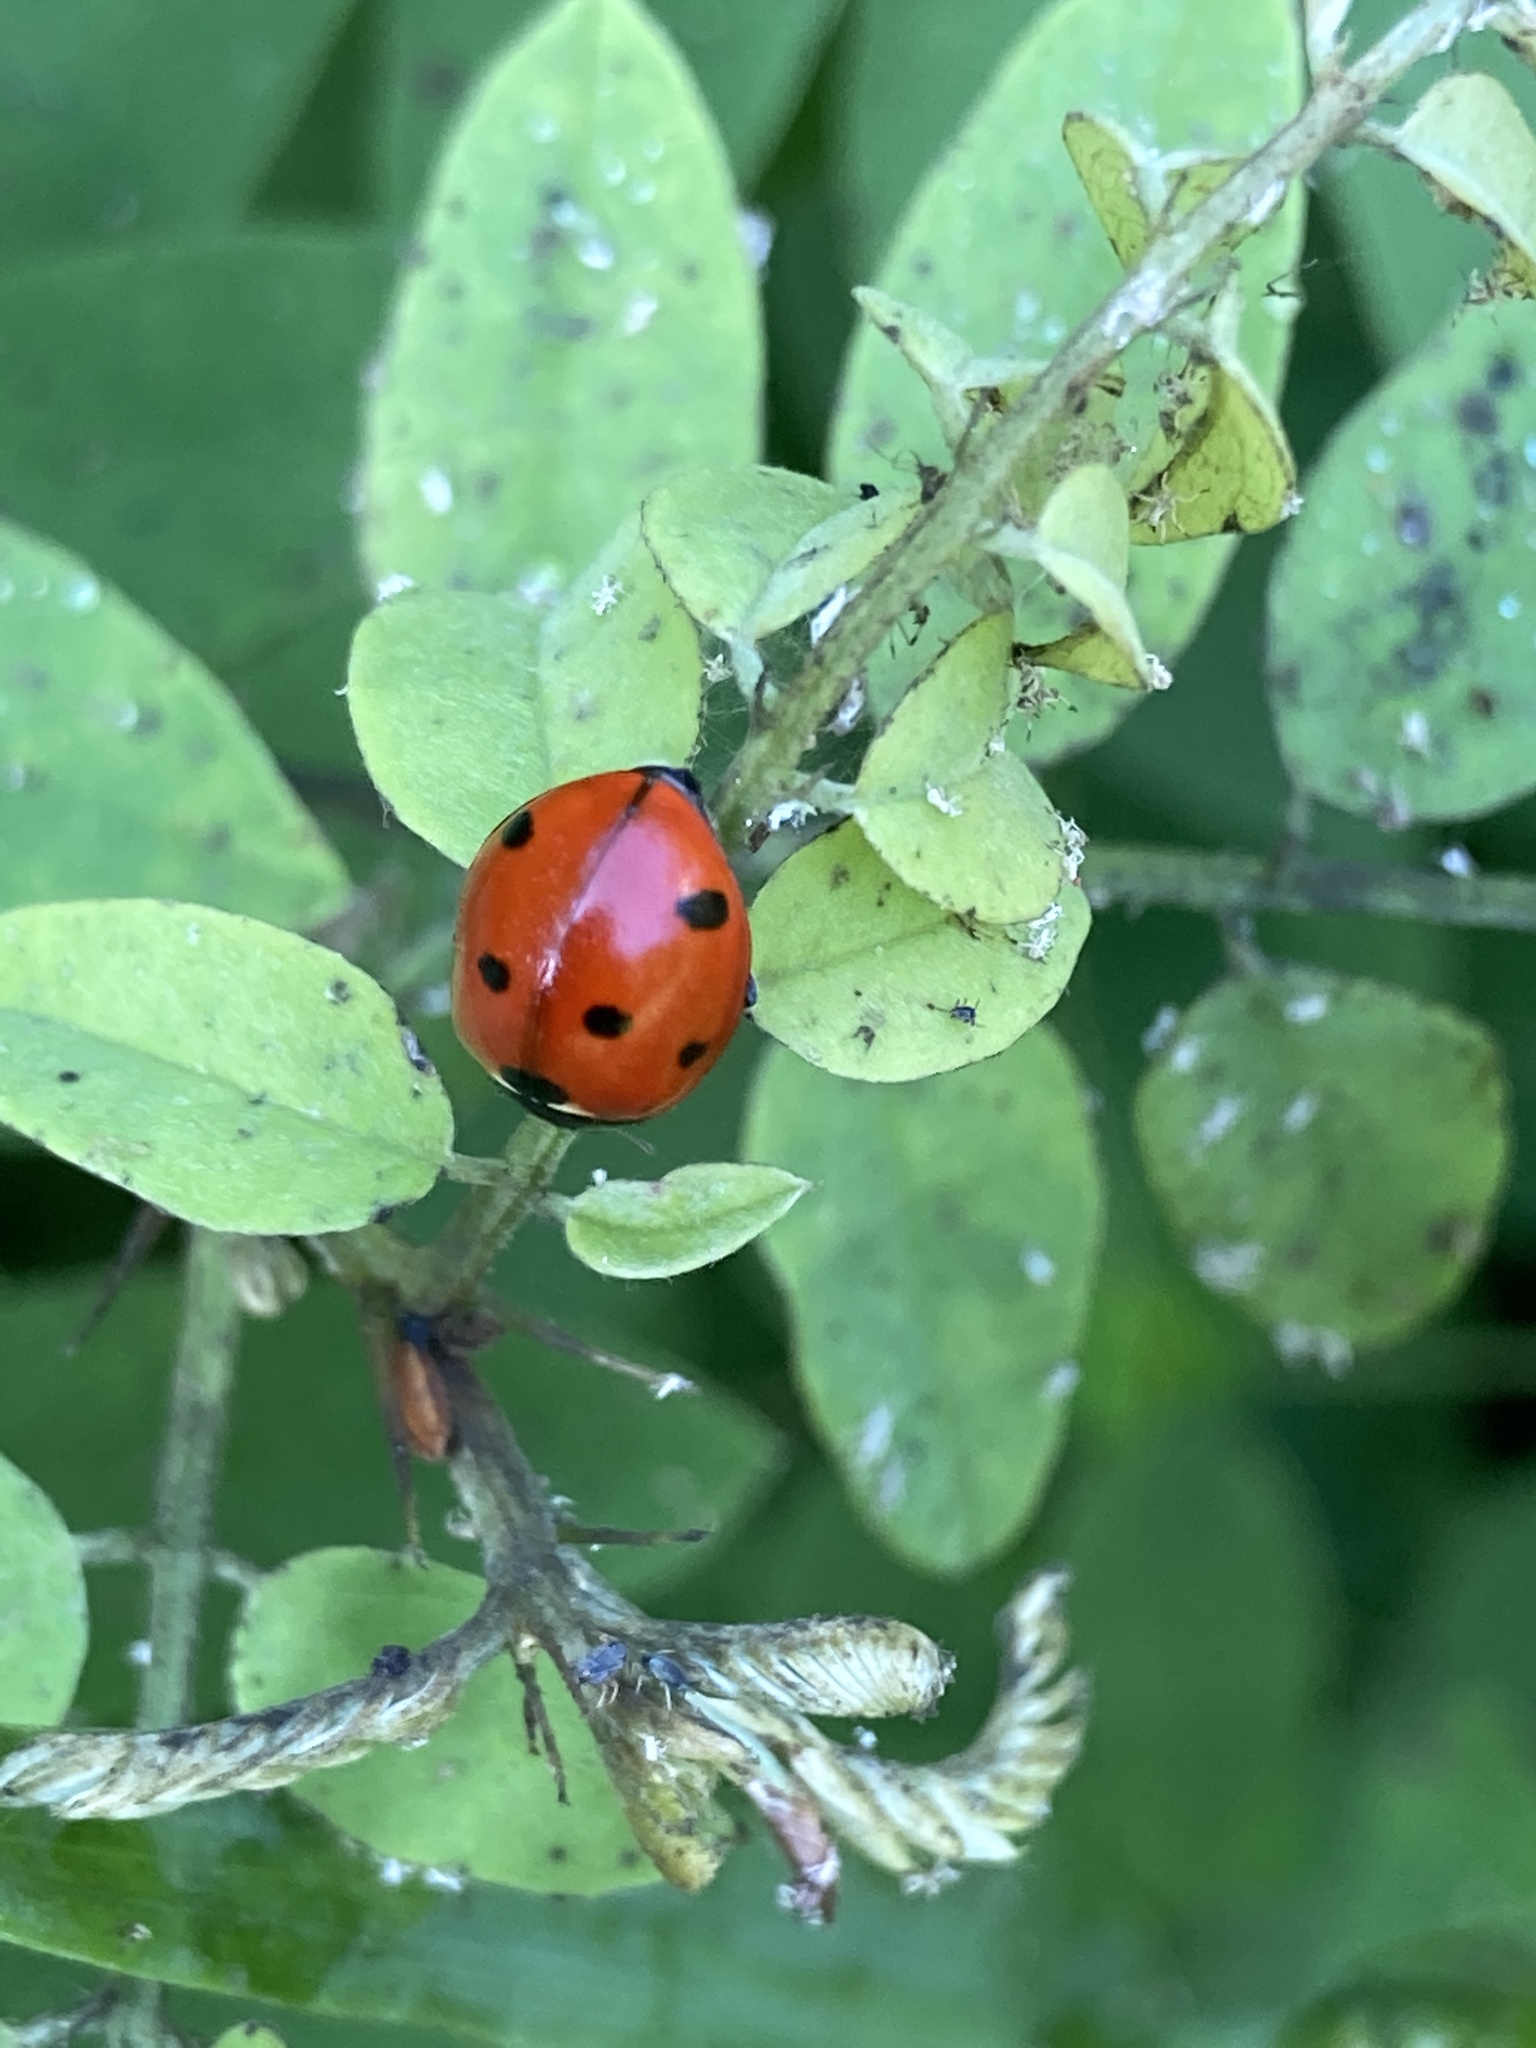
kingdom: Animalia
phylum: Arthropoda
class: Insecta
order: Coleoptera
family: Coccinellidae
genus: Coccinella
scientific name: Coccinella septempunctata
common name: Sevenspotted lady beetle
